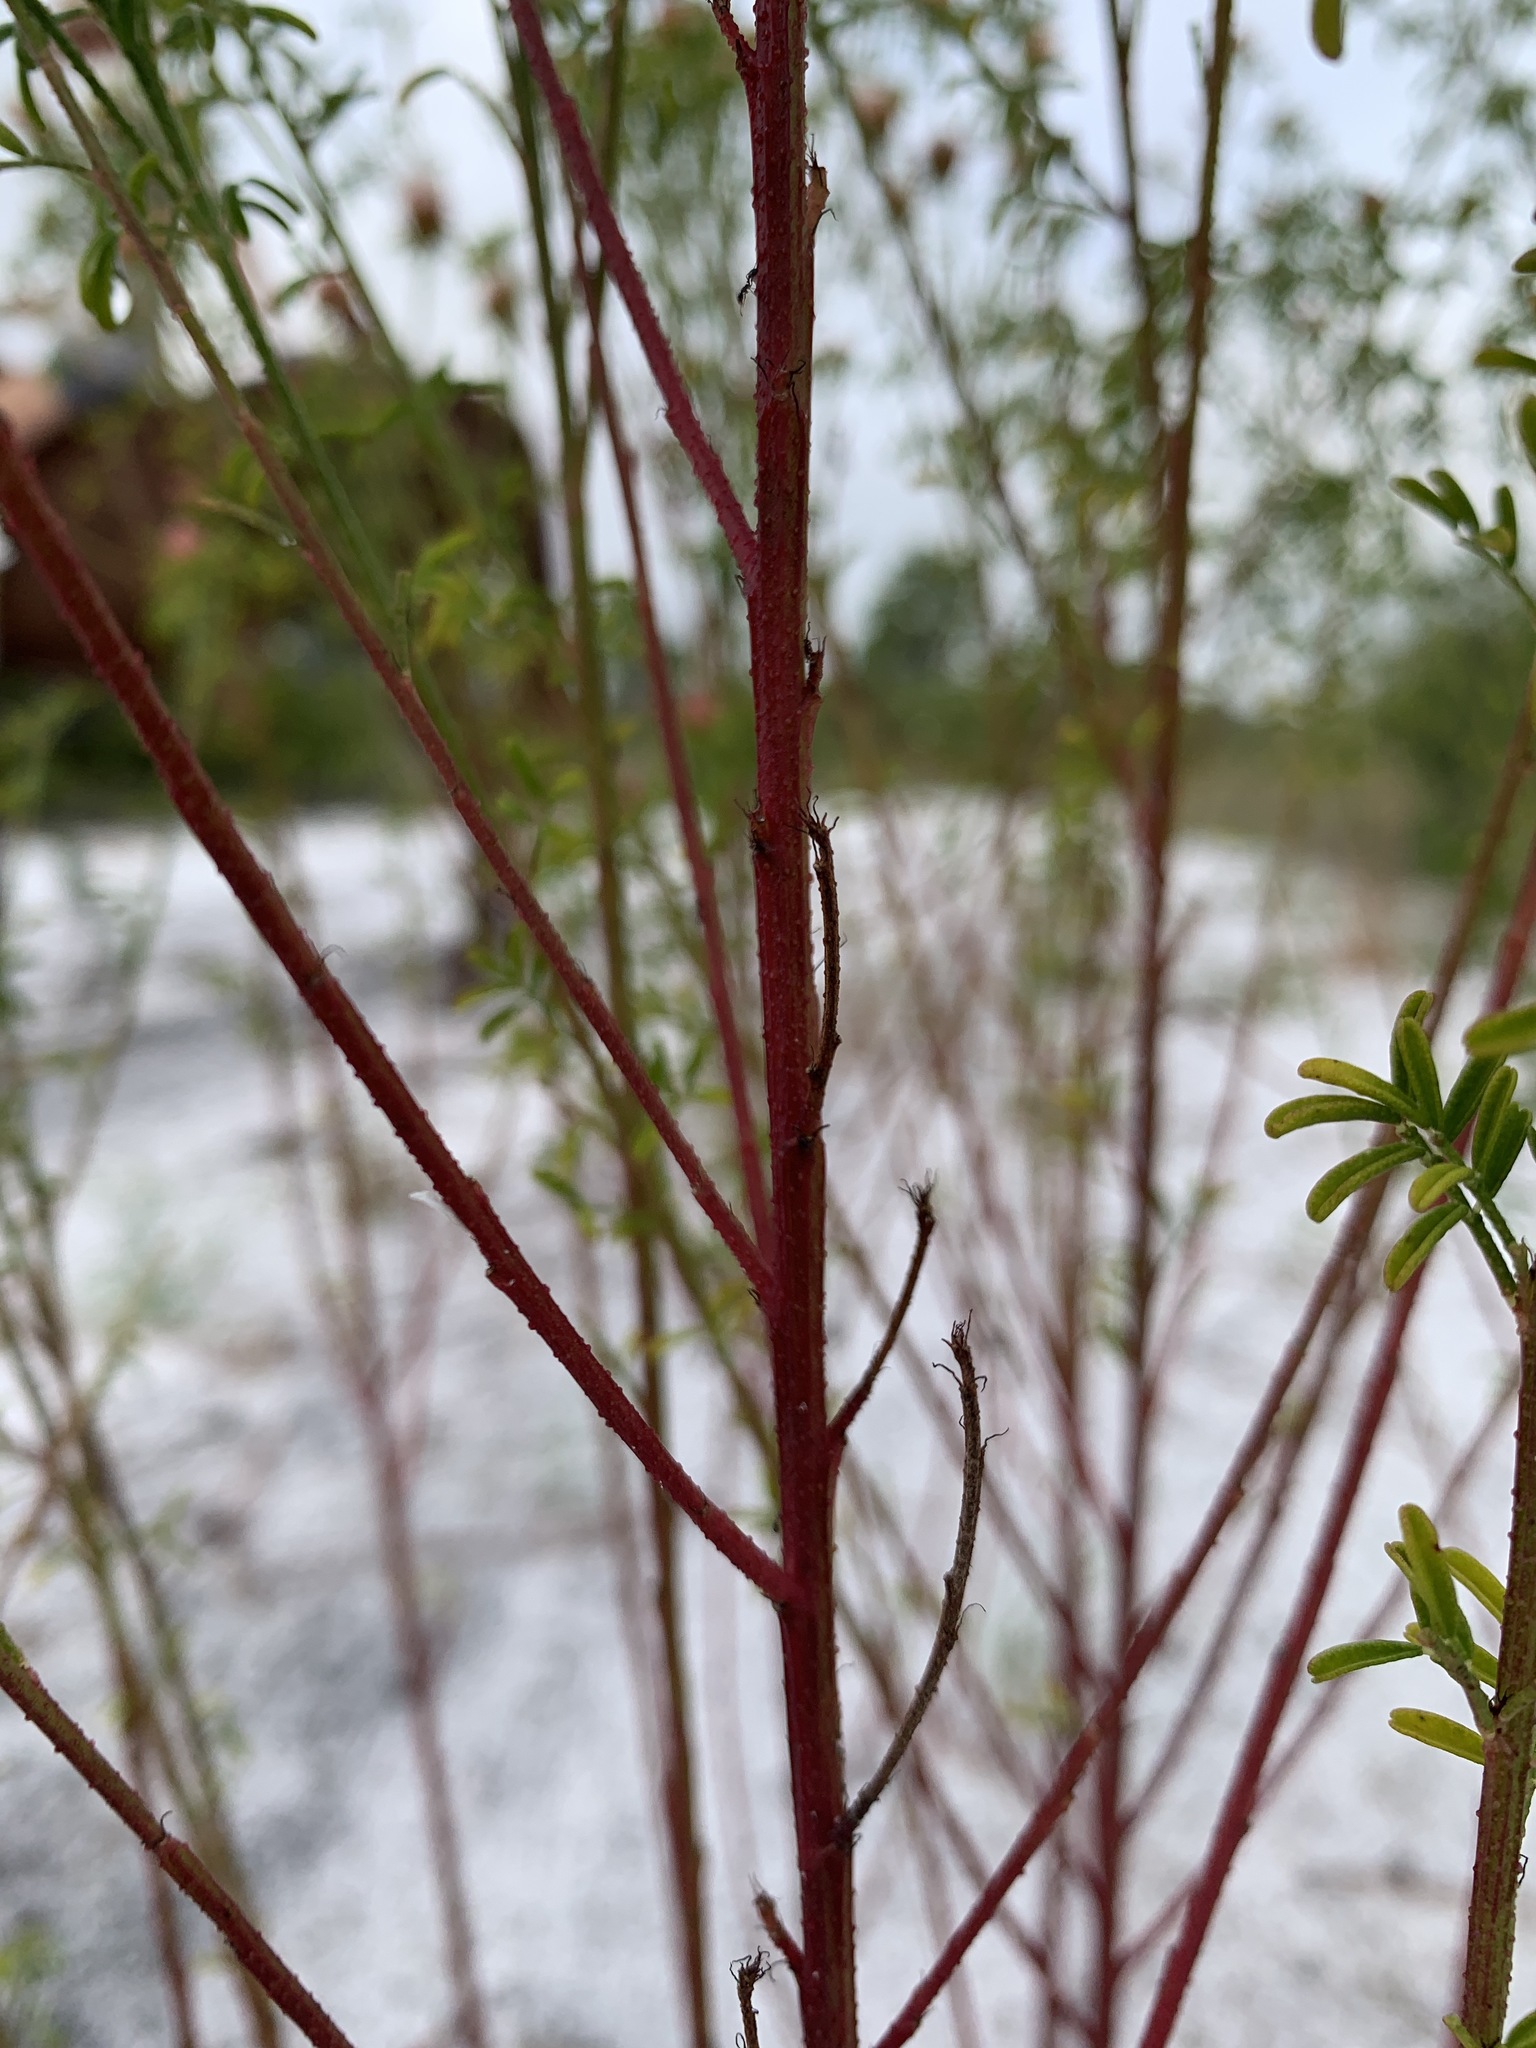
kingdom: Plantae
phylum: Tracheophyta
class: Magnoliopsida
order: Fabales
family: Fabaceae
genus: Dalea
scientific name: Dalea pinnata
